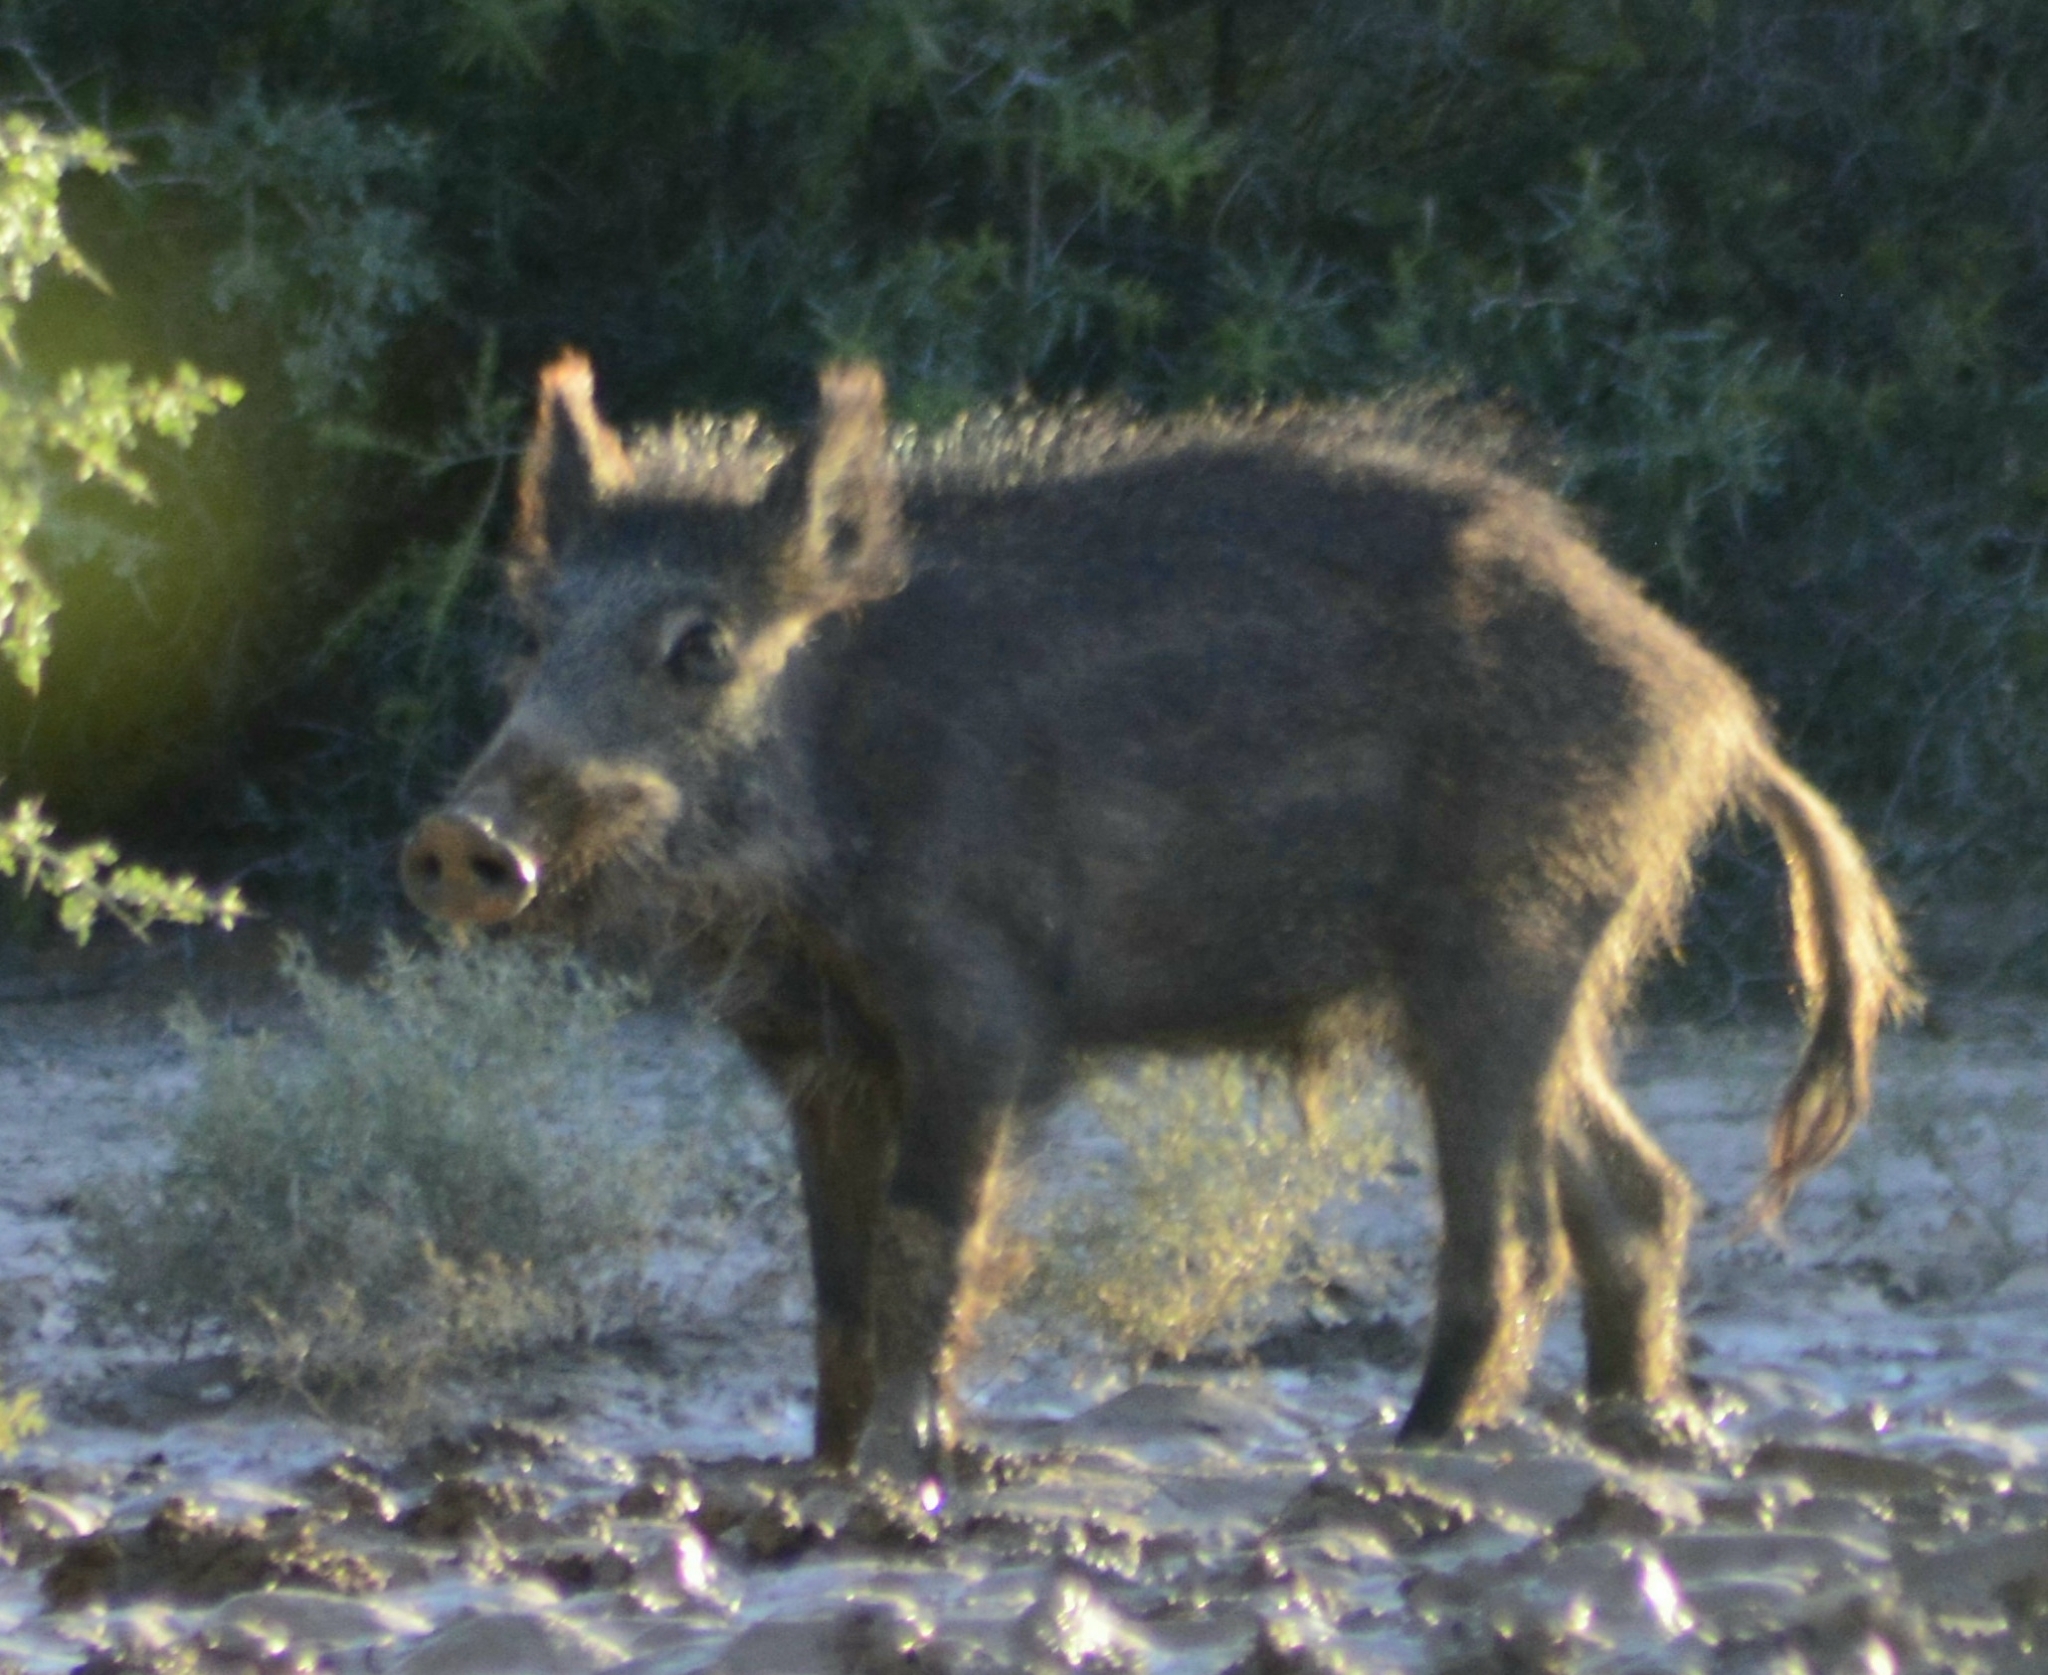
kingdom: Animalia
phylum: Chordata
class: Mammalia
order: Artiodactyla
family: Suidae
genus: Sus
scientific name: Sus scrofa
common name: Wild boar
